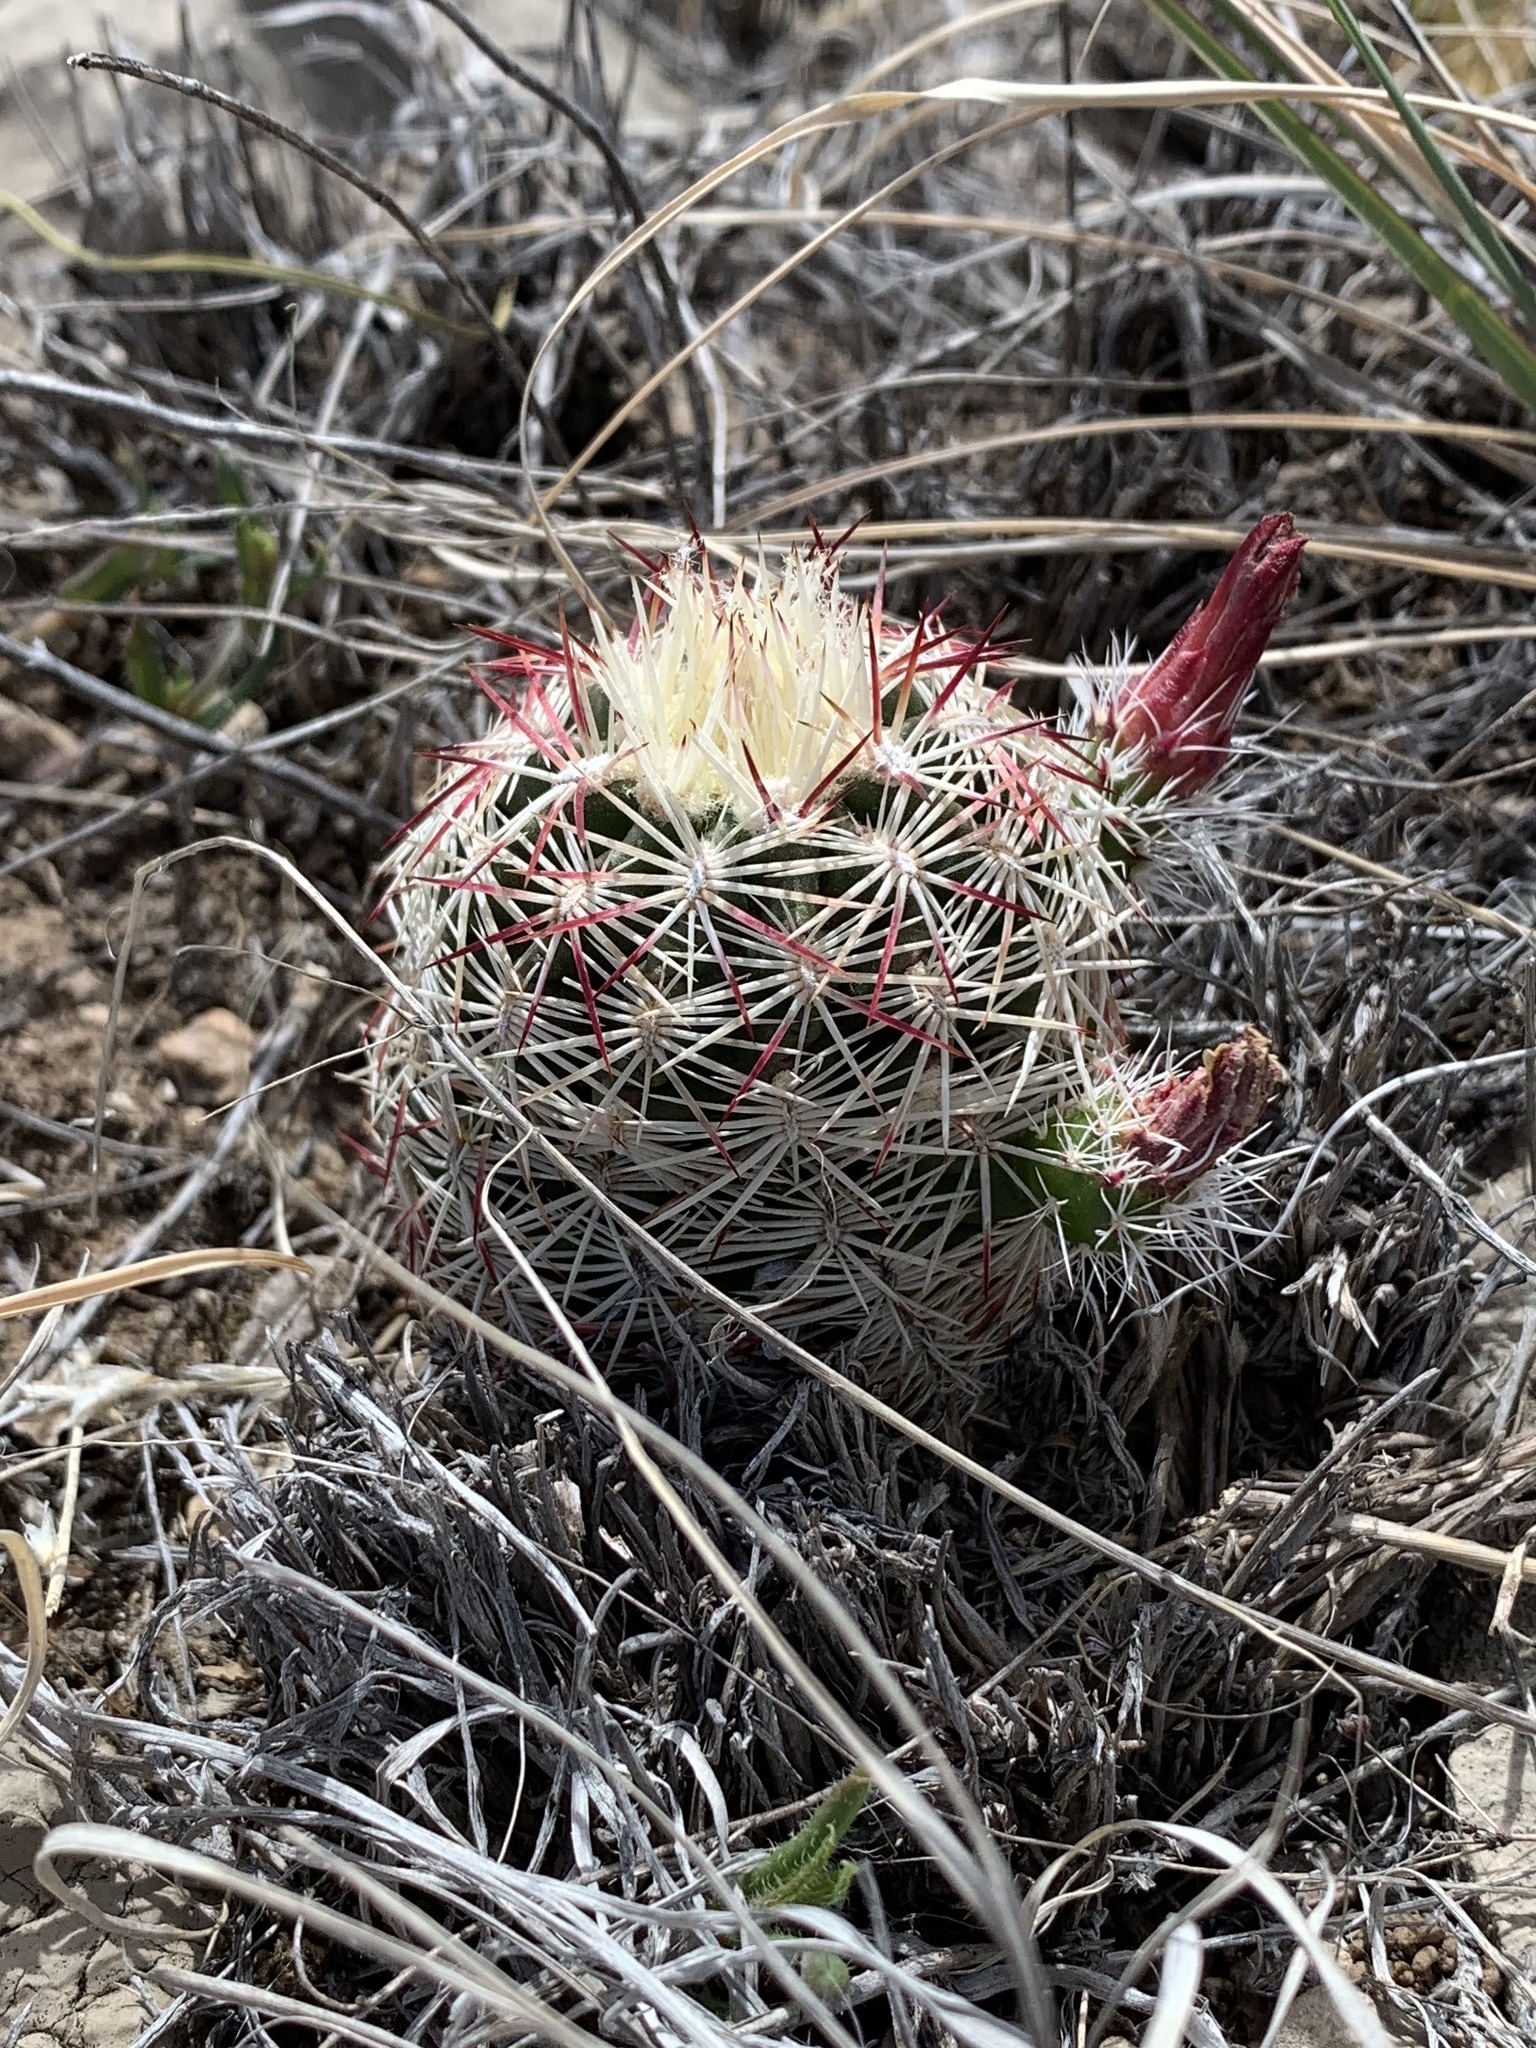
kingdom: Plantae
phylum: Tracheophyta
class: Magnoliopsida
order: Caryophyllales
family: Cactaceae
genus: Echinocereus
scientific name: Echinocereus viridiflorus
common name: Nylon hedgehog cactus
